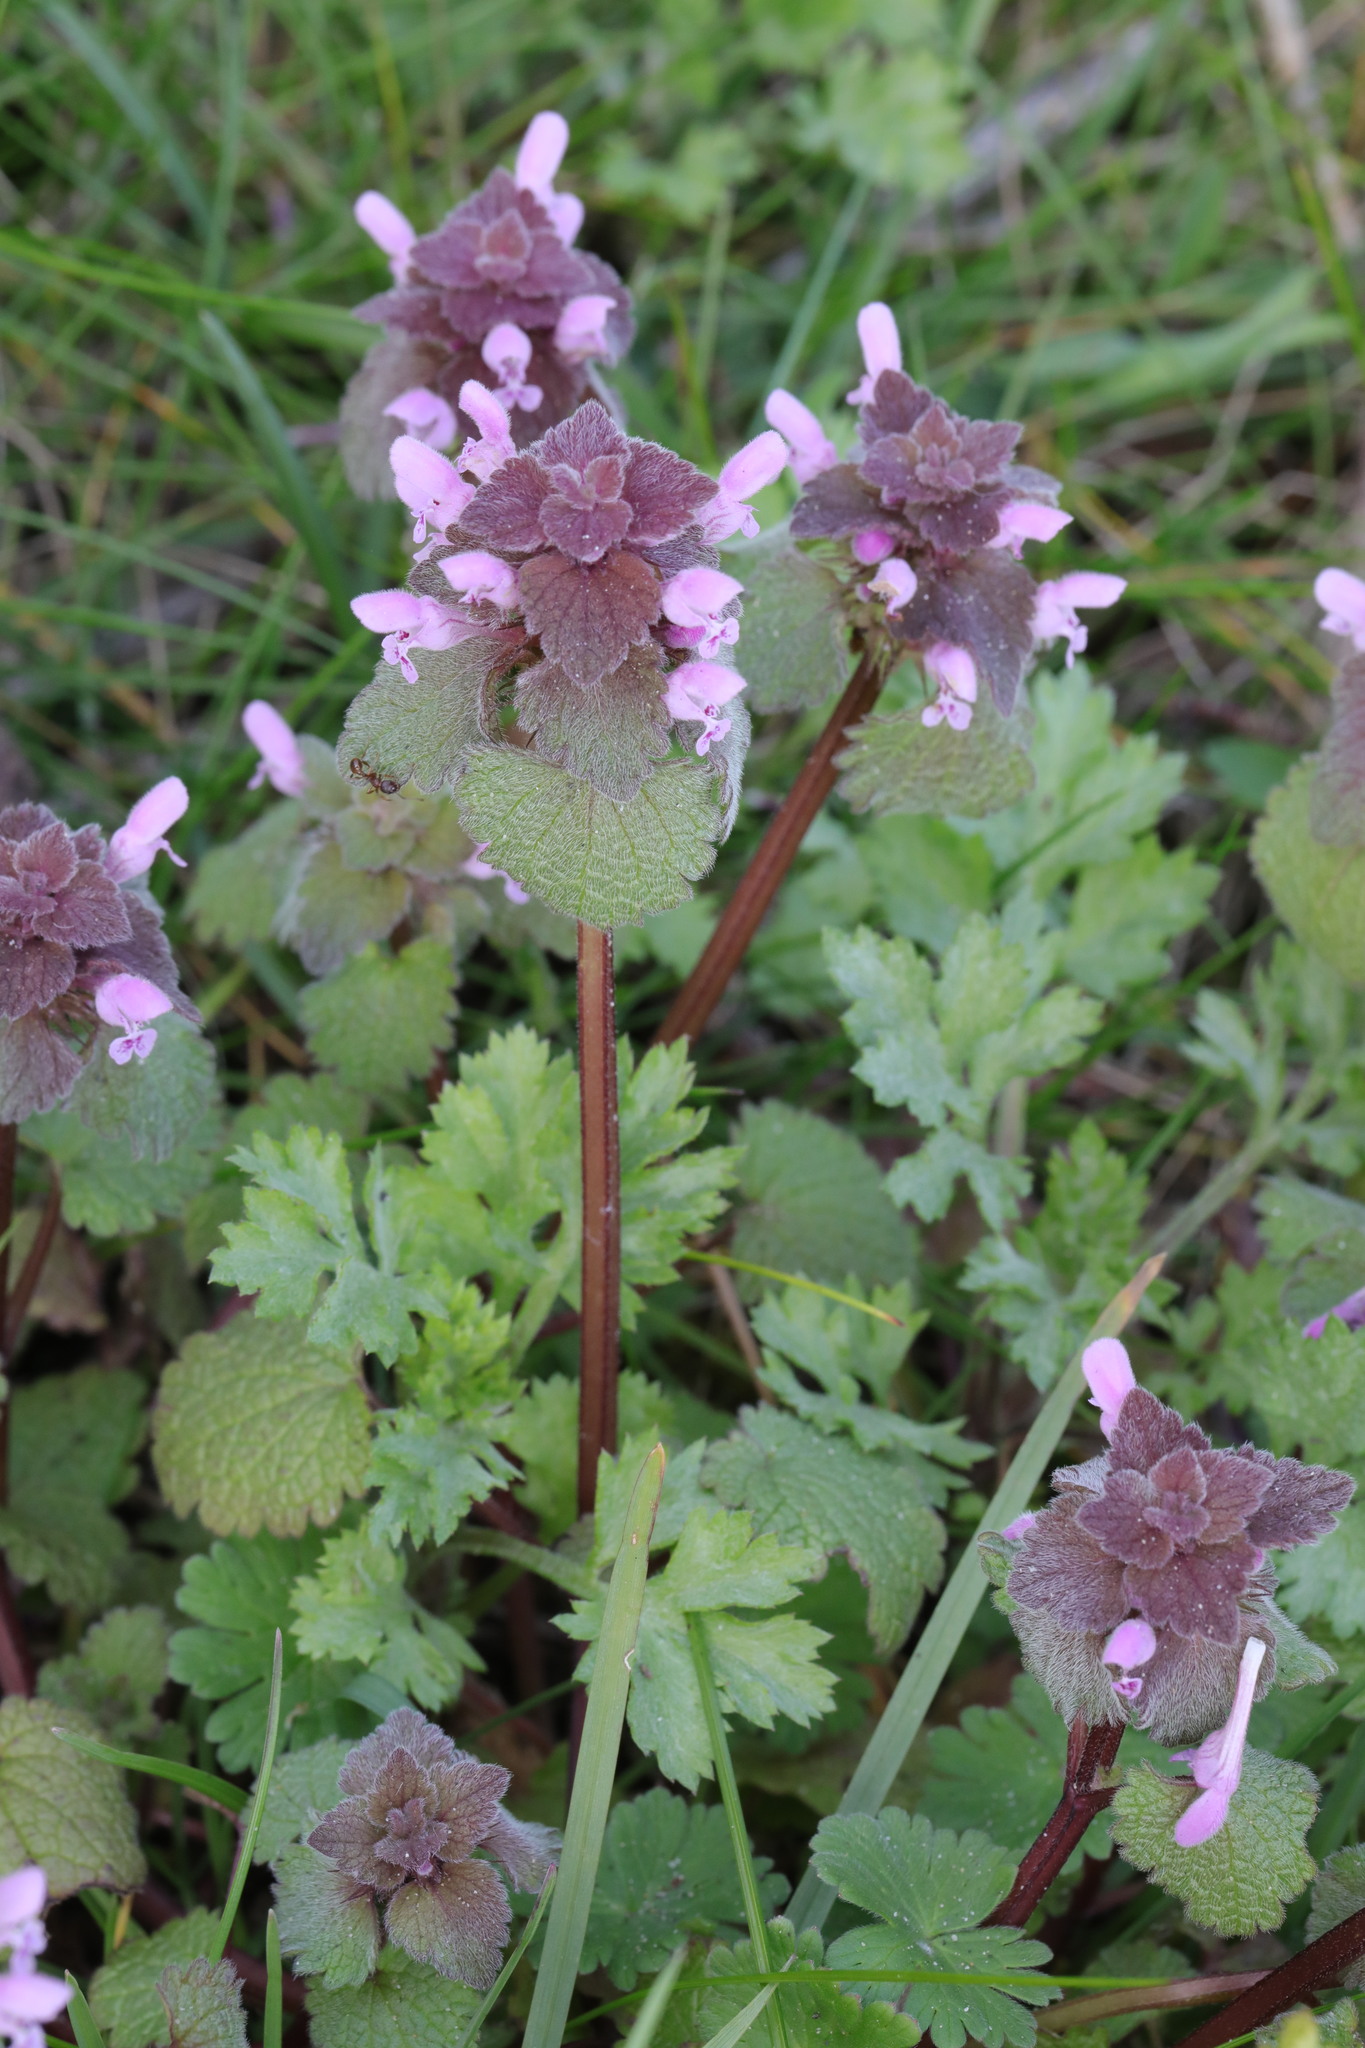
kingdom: Plantae
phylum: Tracheophyta
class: Magnoliopsida
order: Lamiales
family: Lamiaceae
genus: Lamium
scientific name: Lamium purpureum
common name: Red dead-nettle
